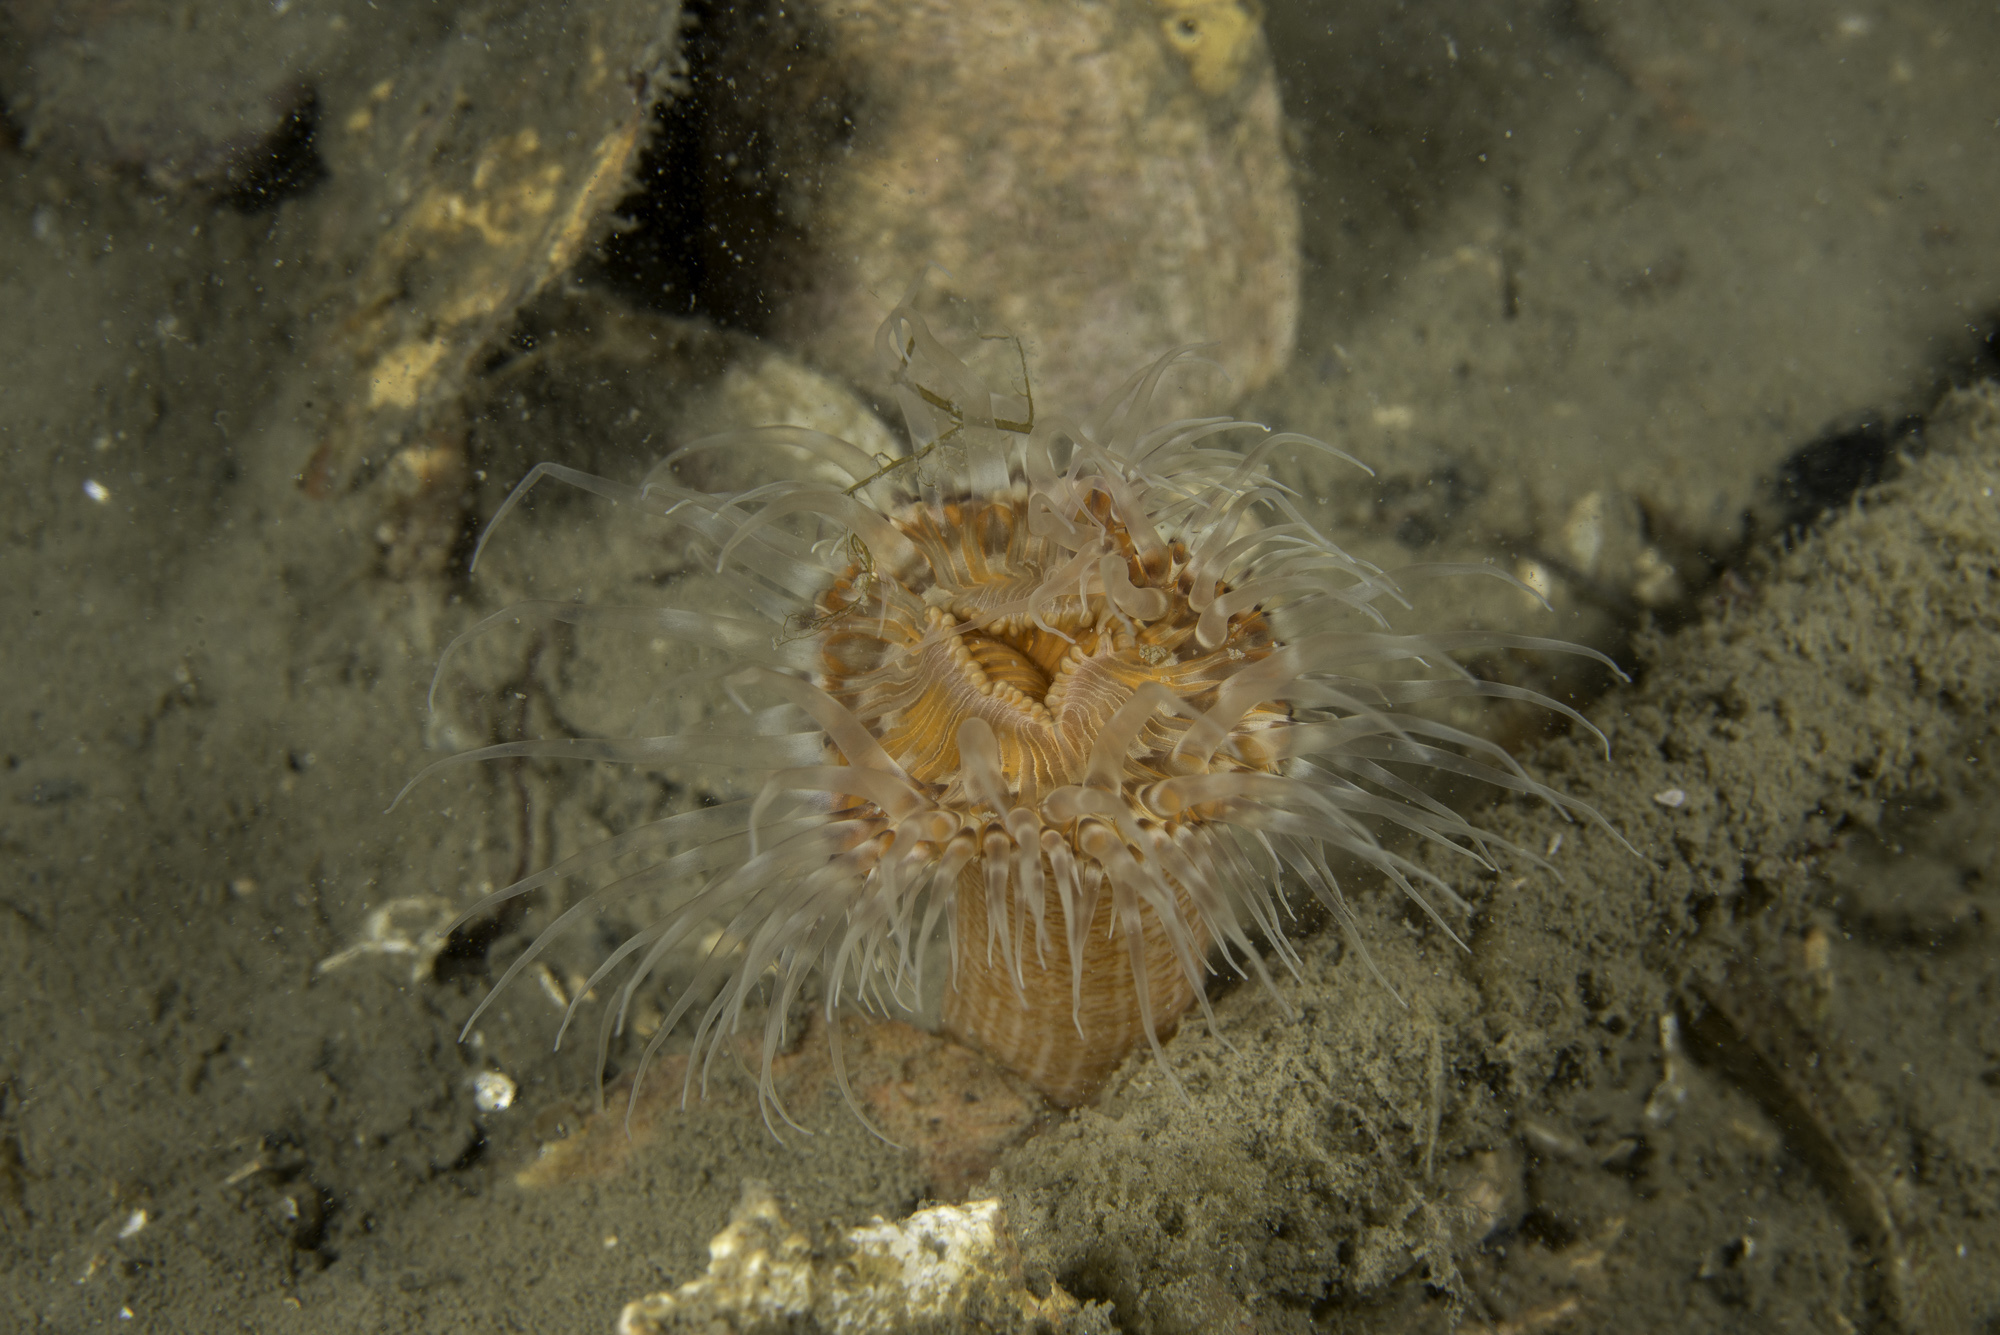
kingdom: Animalia
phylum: Cnidaria
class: Anthozoa
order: Actiniaria
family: Sagartiidae
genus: Sagartia
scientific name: Sagartia lacerata
